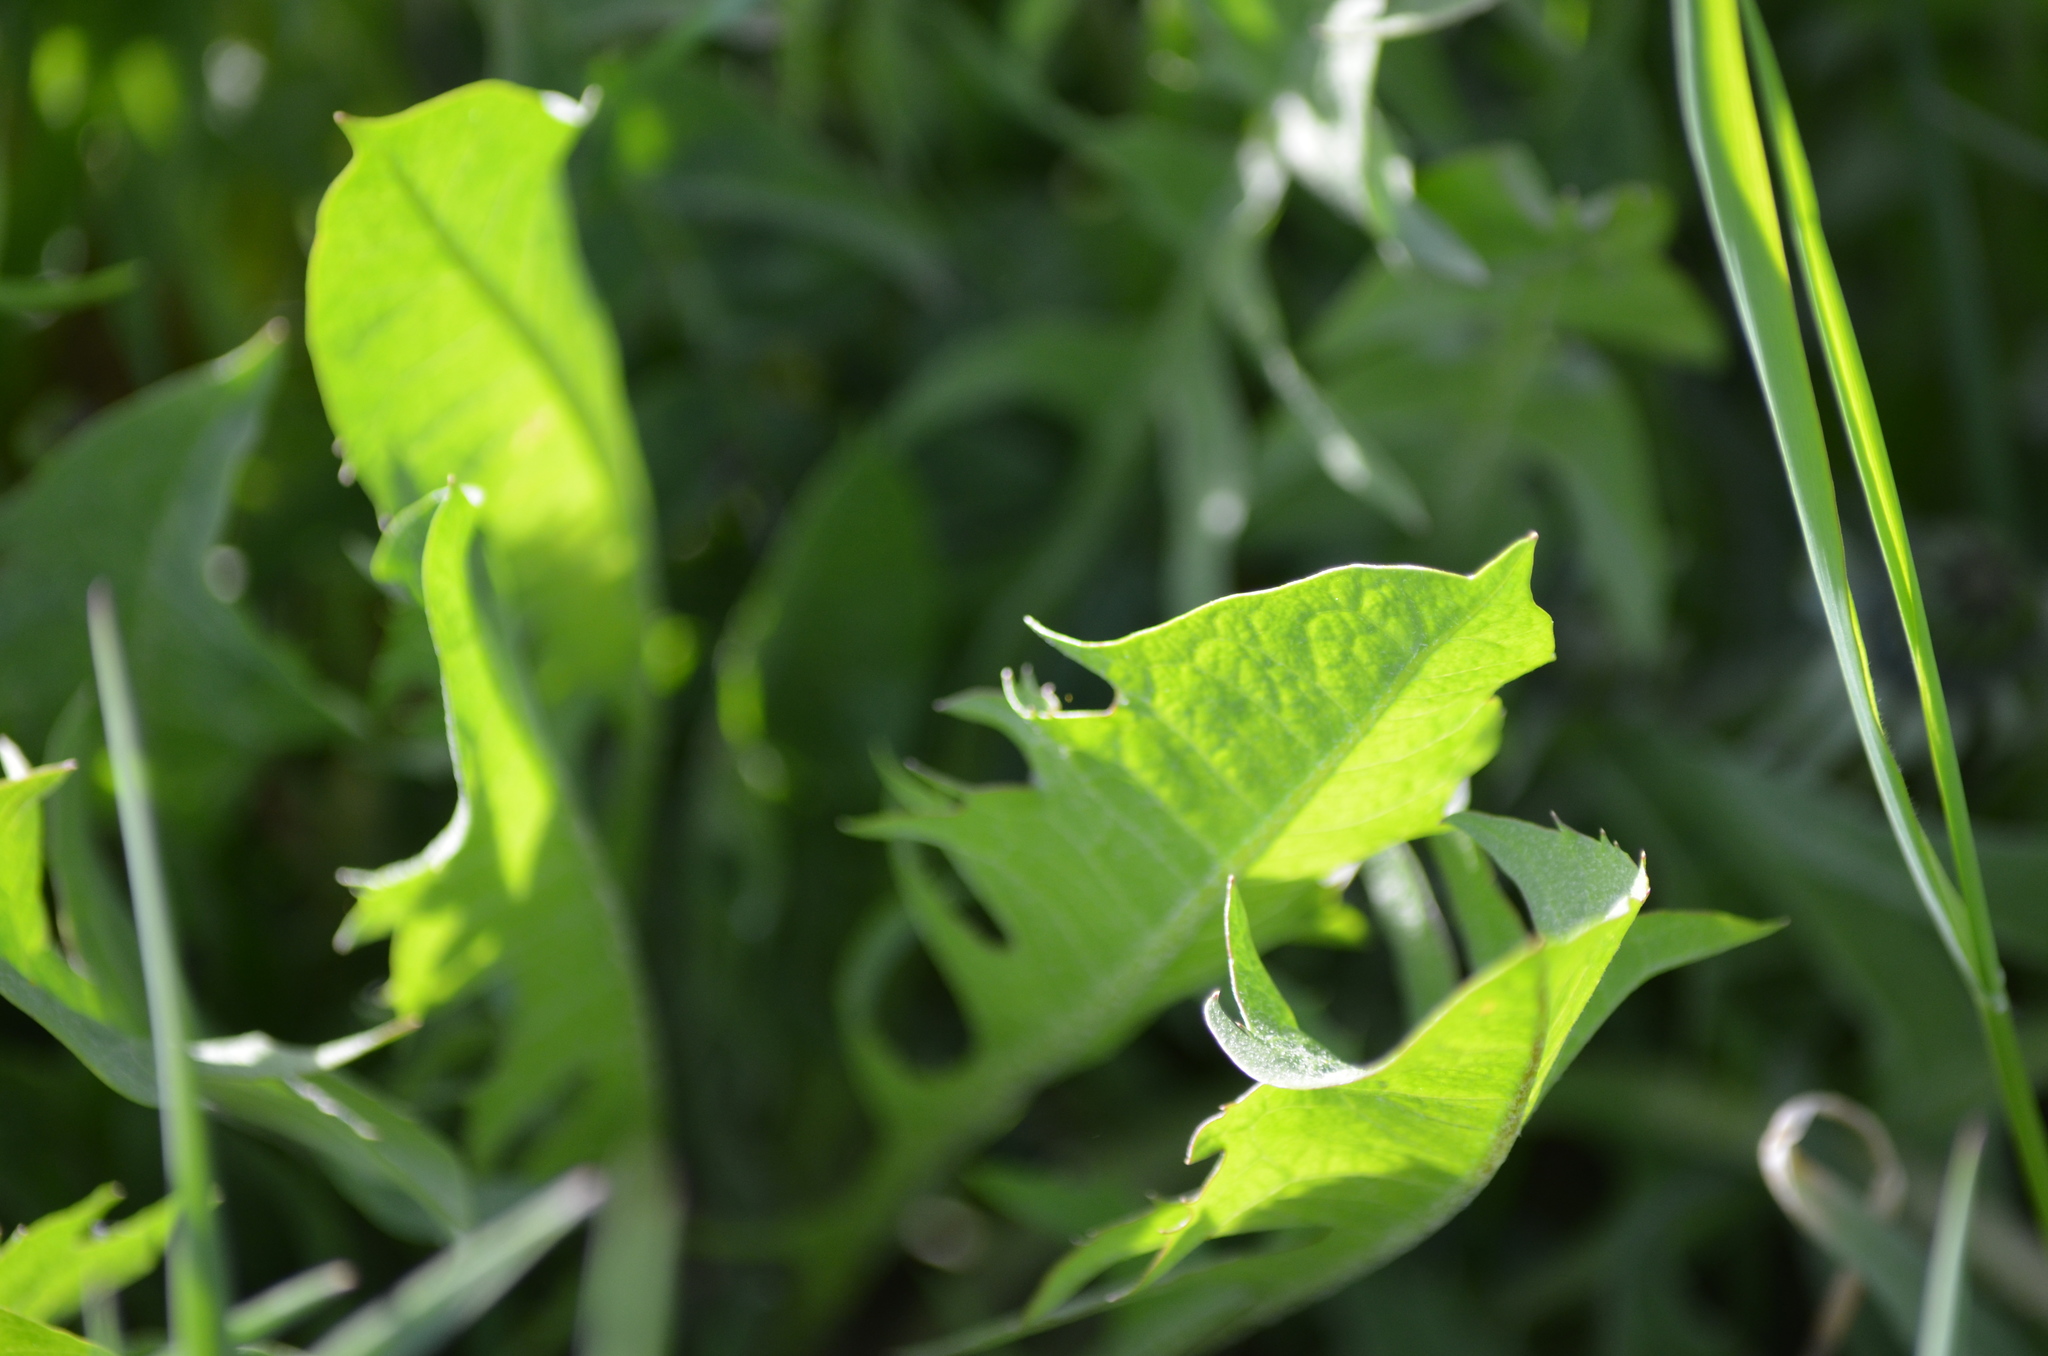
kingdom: Plantae
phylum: Tracheophyta
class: Magnoliopsida
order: Asterales
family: Asteraceae
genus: Taraxacum
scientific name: Taraxacum officinale
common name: Common dandelion
